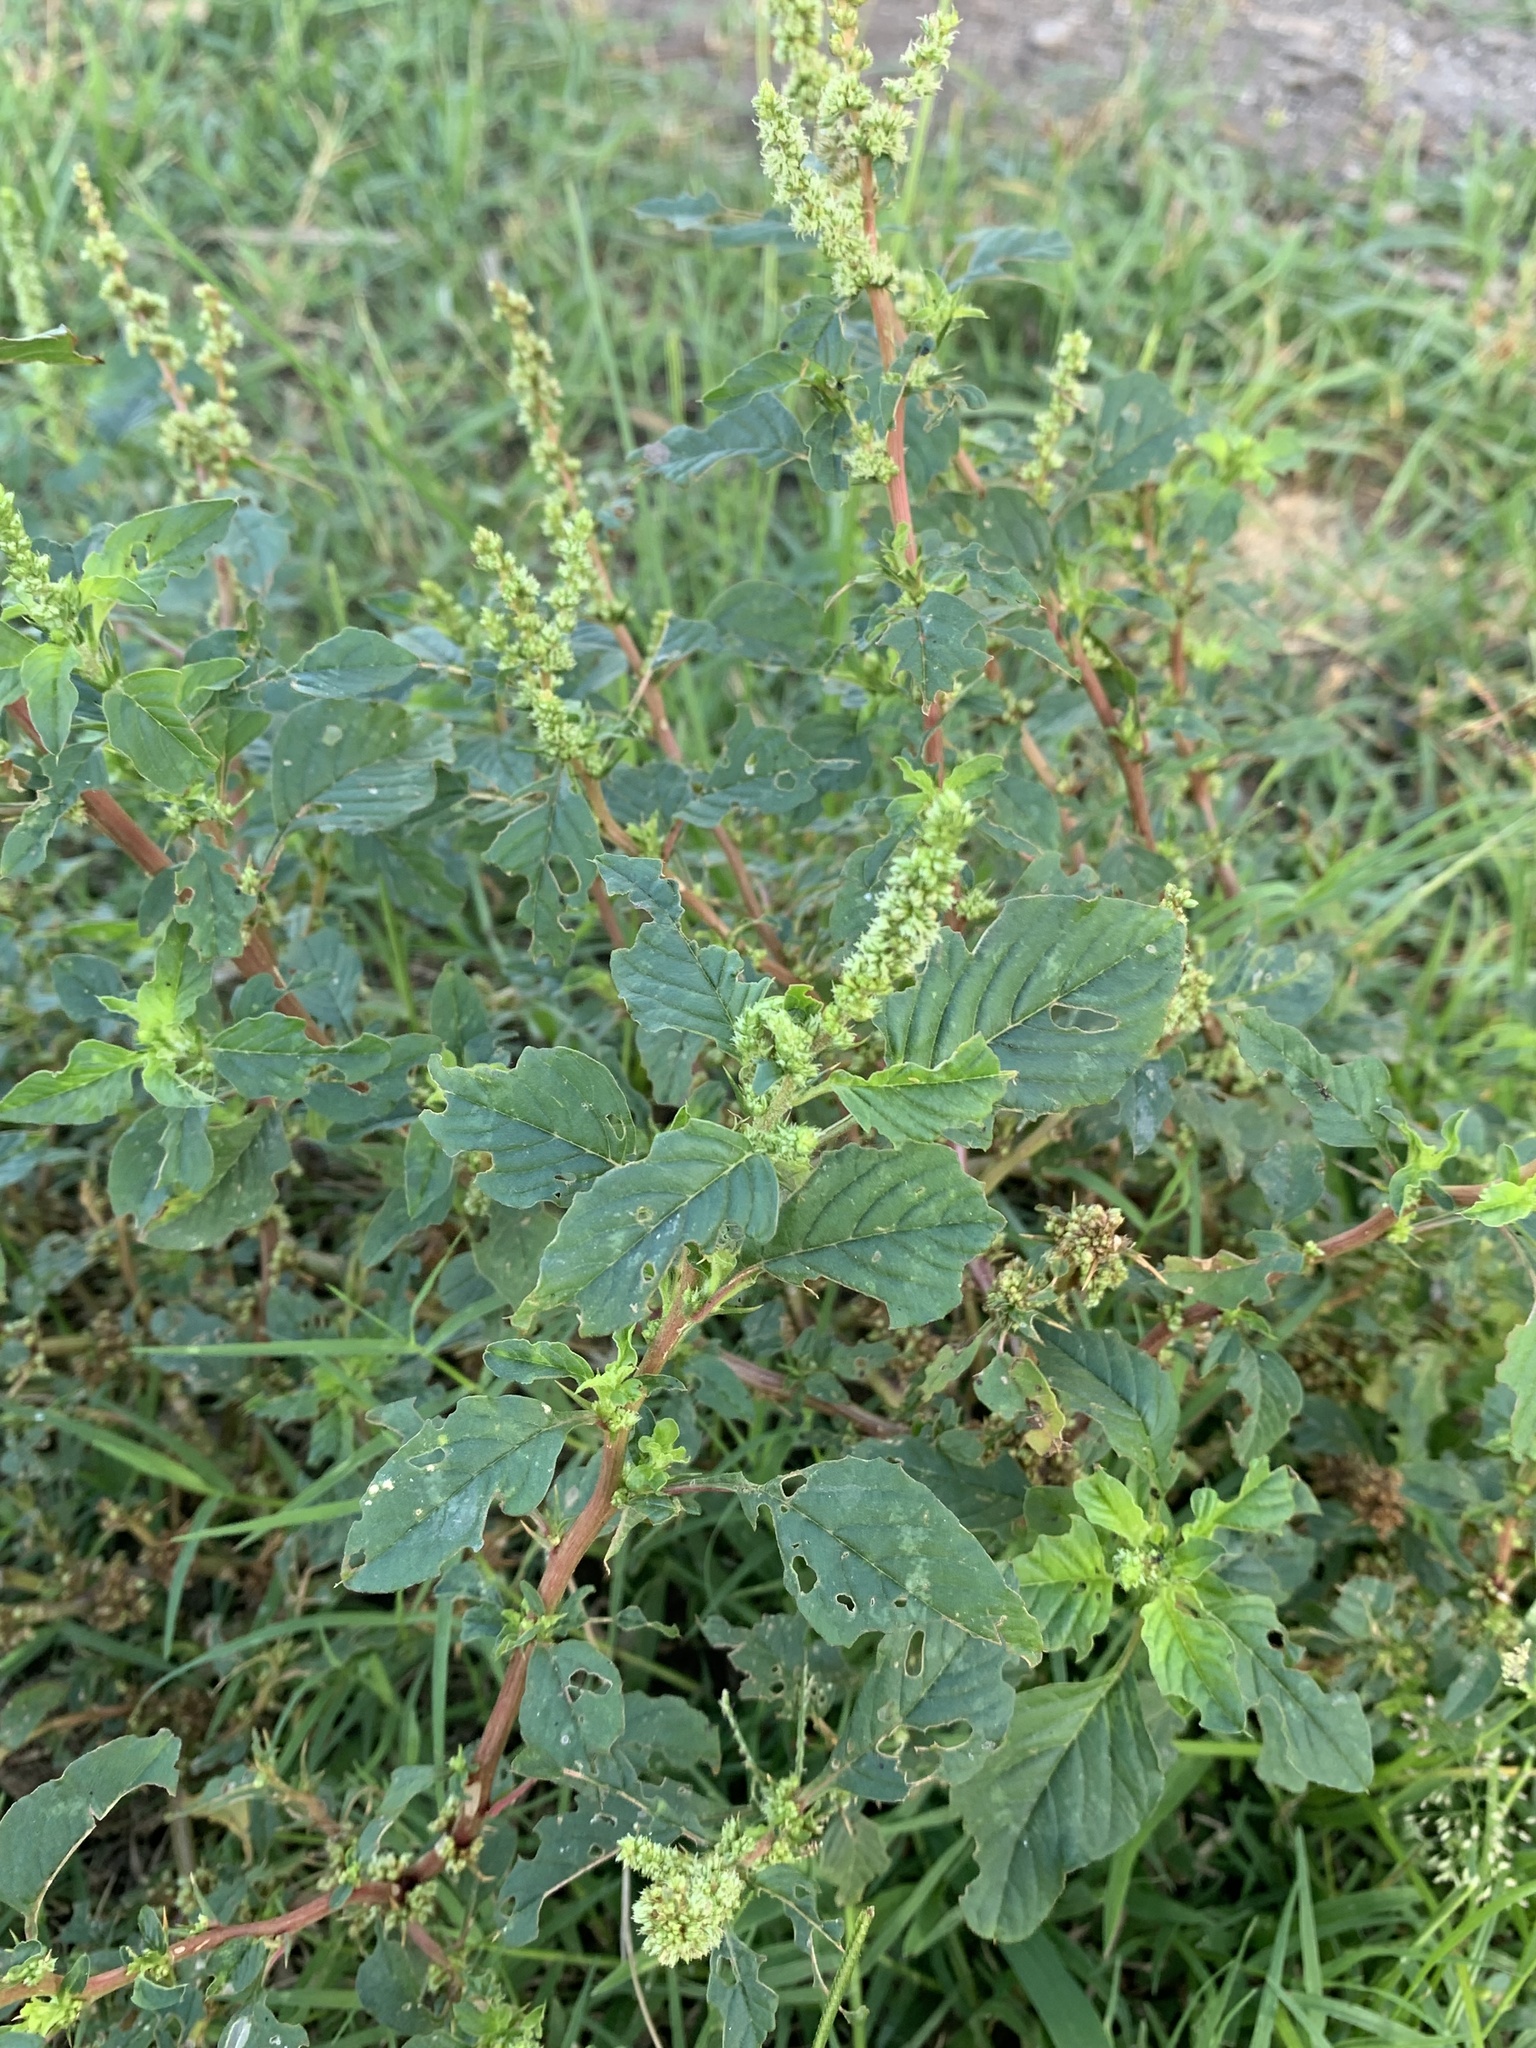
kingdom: Plantae
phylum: Tracheophyta
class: Magnoliopsida
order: Caryophyllales
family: Amaranthaceae
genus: Amaranthus
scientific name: Amaranthus spinosus
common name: Spiny amaranth
